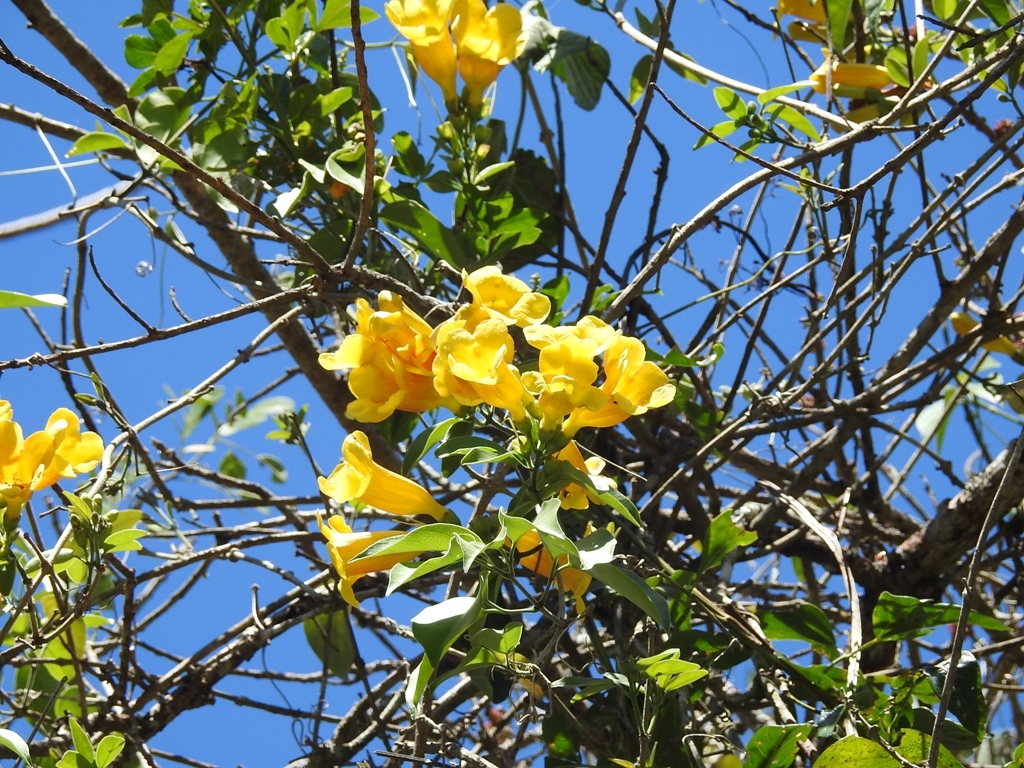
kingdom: Plantae
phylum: Tracheophyta
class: Magnoliopsida
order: Lamiales
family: Bignoniaceae
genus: Anemopaegma
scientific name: Anemopaegma chrysanthum
